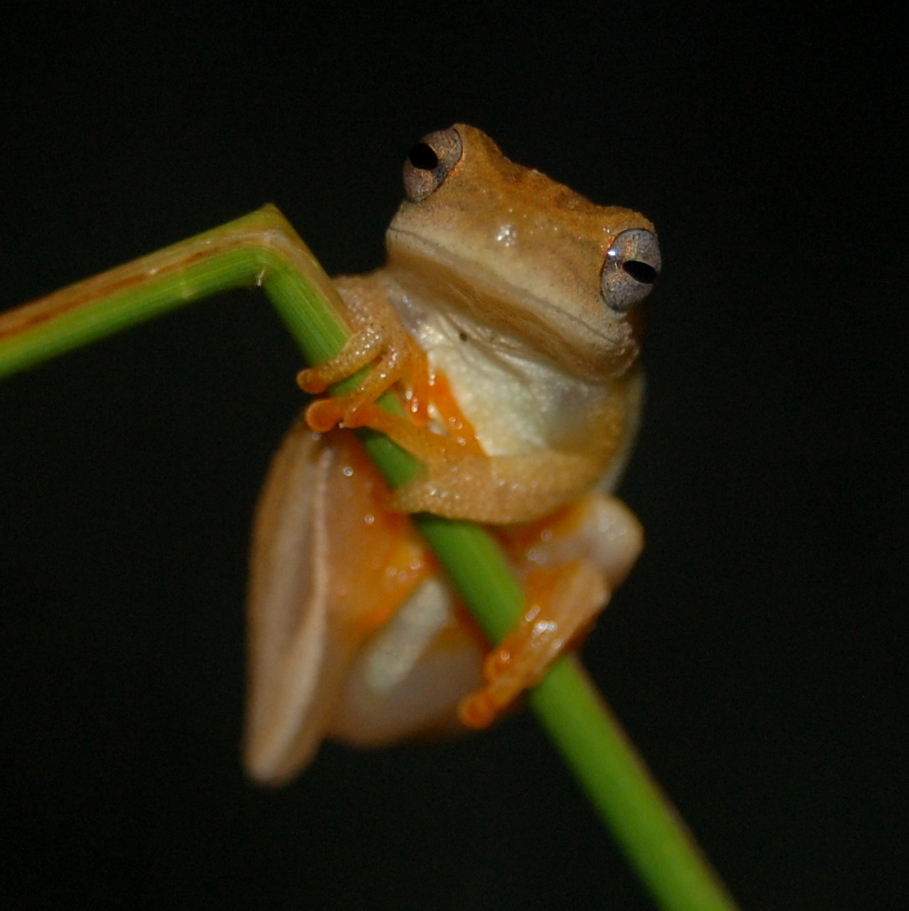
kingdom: Animalia
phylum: Chordata
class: Amphibia
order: Anura
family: Hylidae
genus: Dendropsophus
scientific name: Dendropsophus minutus
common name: Lesser treefrog
